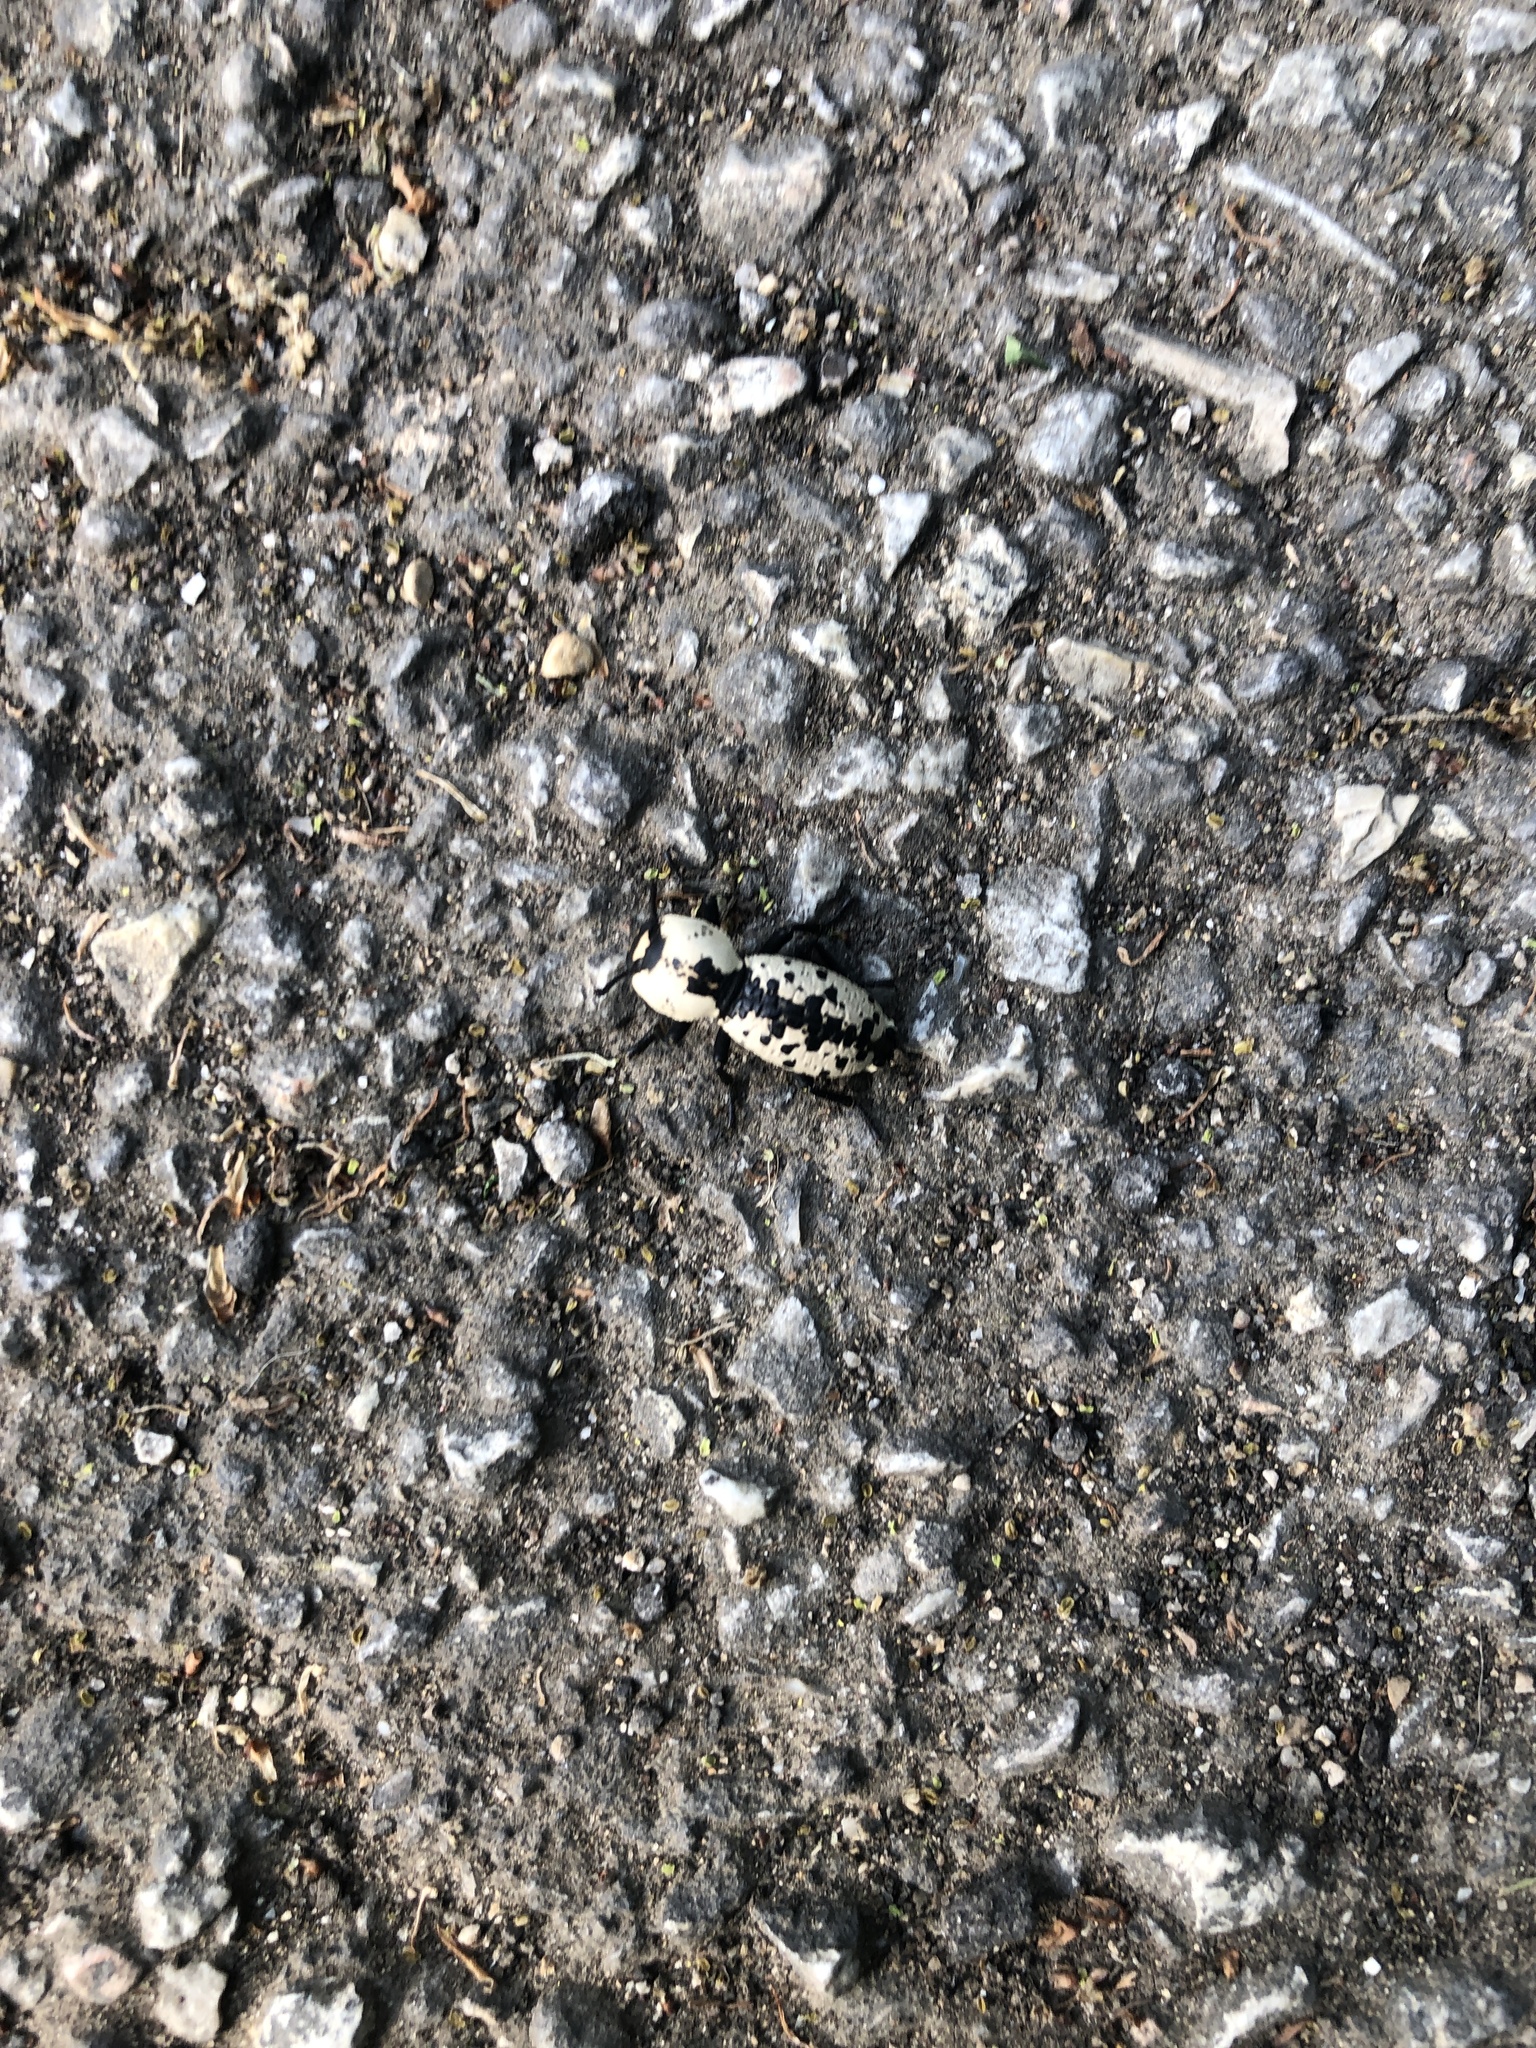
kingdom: Animalia
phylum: Arthropoda
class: Insecta
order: Coleoptera
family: Zopheridae
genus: Zopherus
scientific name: Zopherus nodulosus
